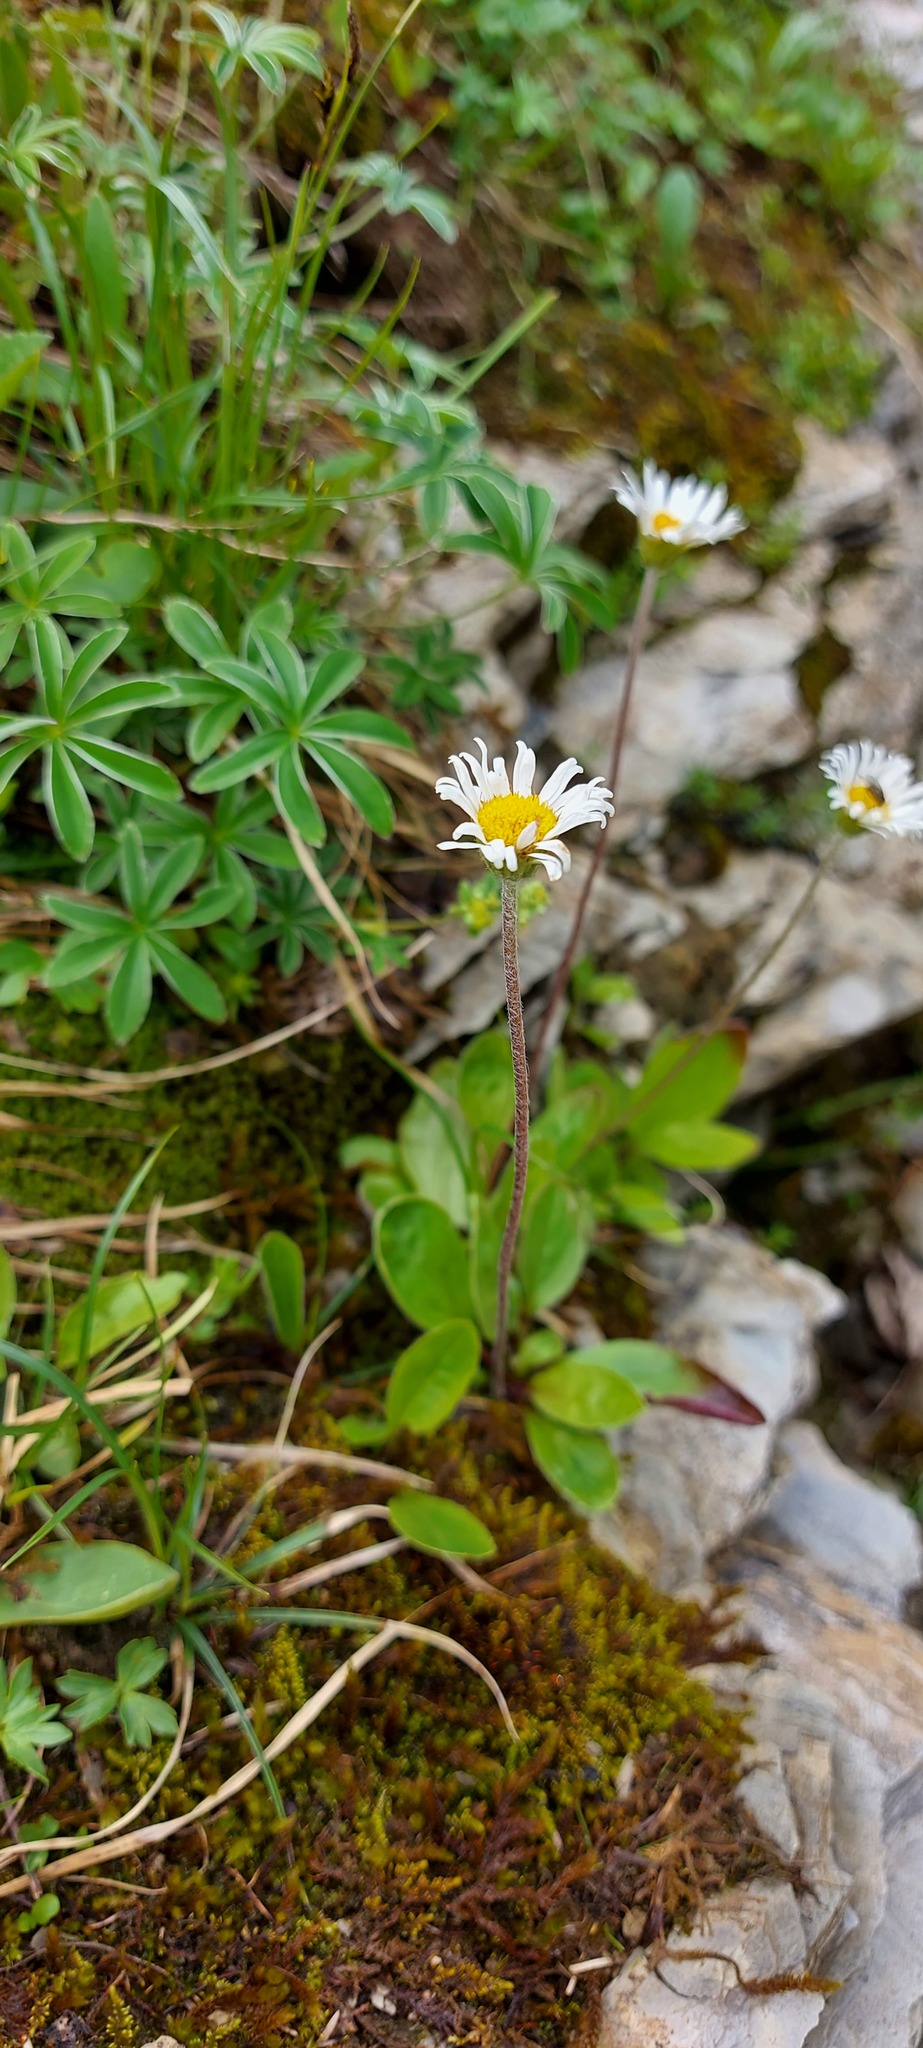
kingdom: Plantae
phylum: Tracheophyta
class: Magnoliopsida
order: Asterales
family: Asteraceae
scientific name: Asteraceae
